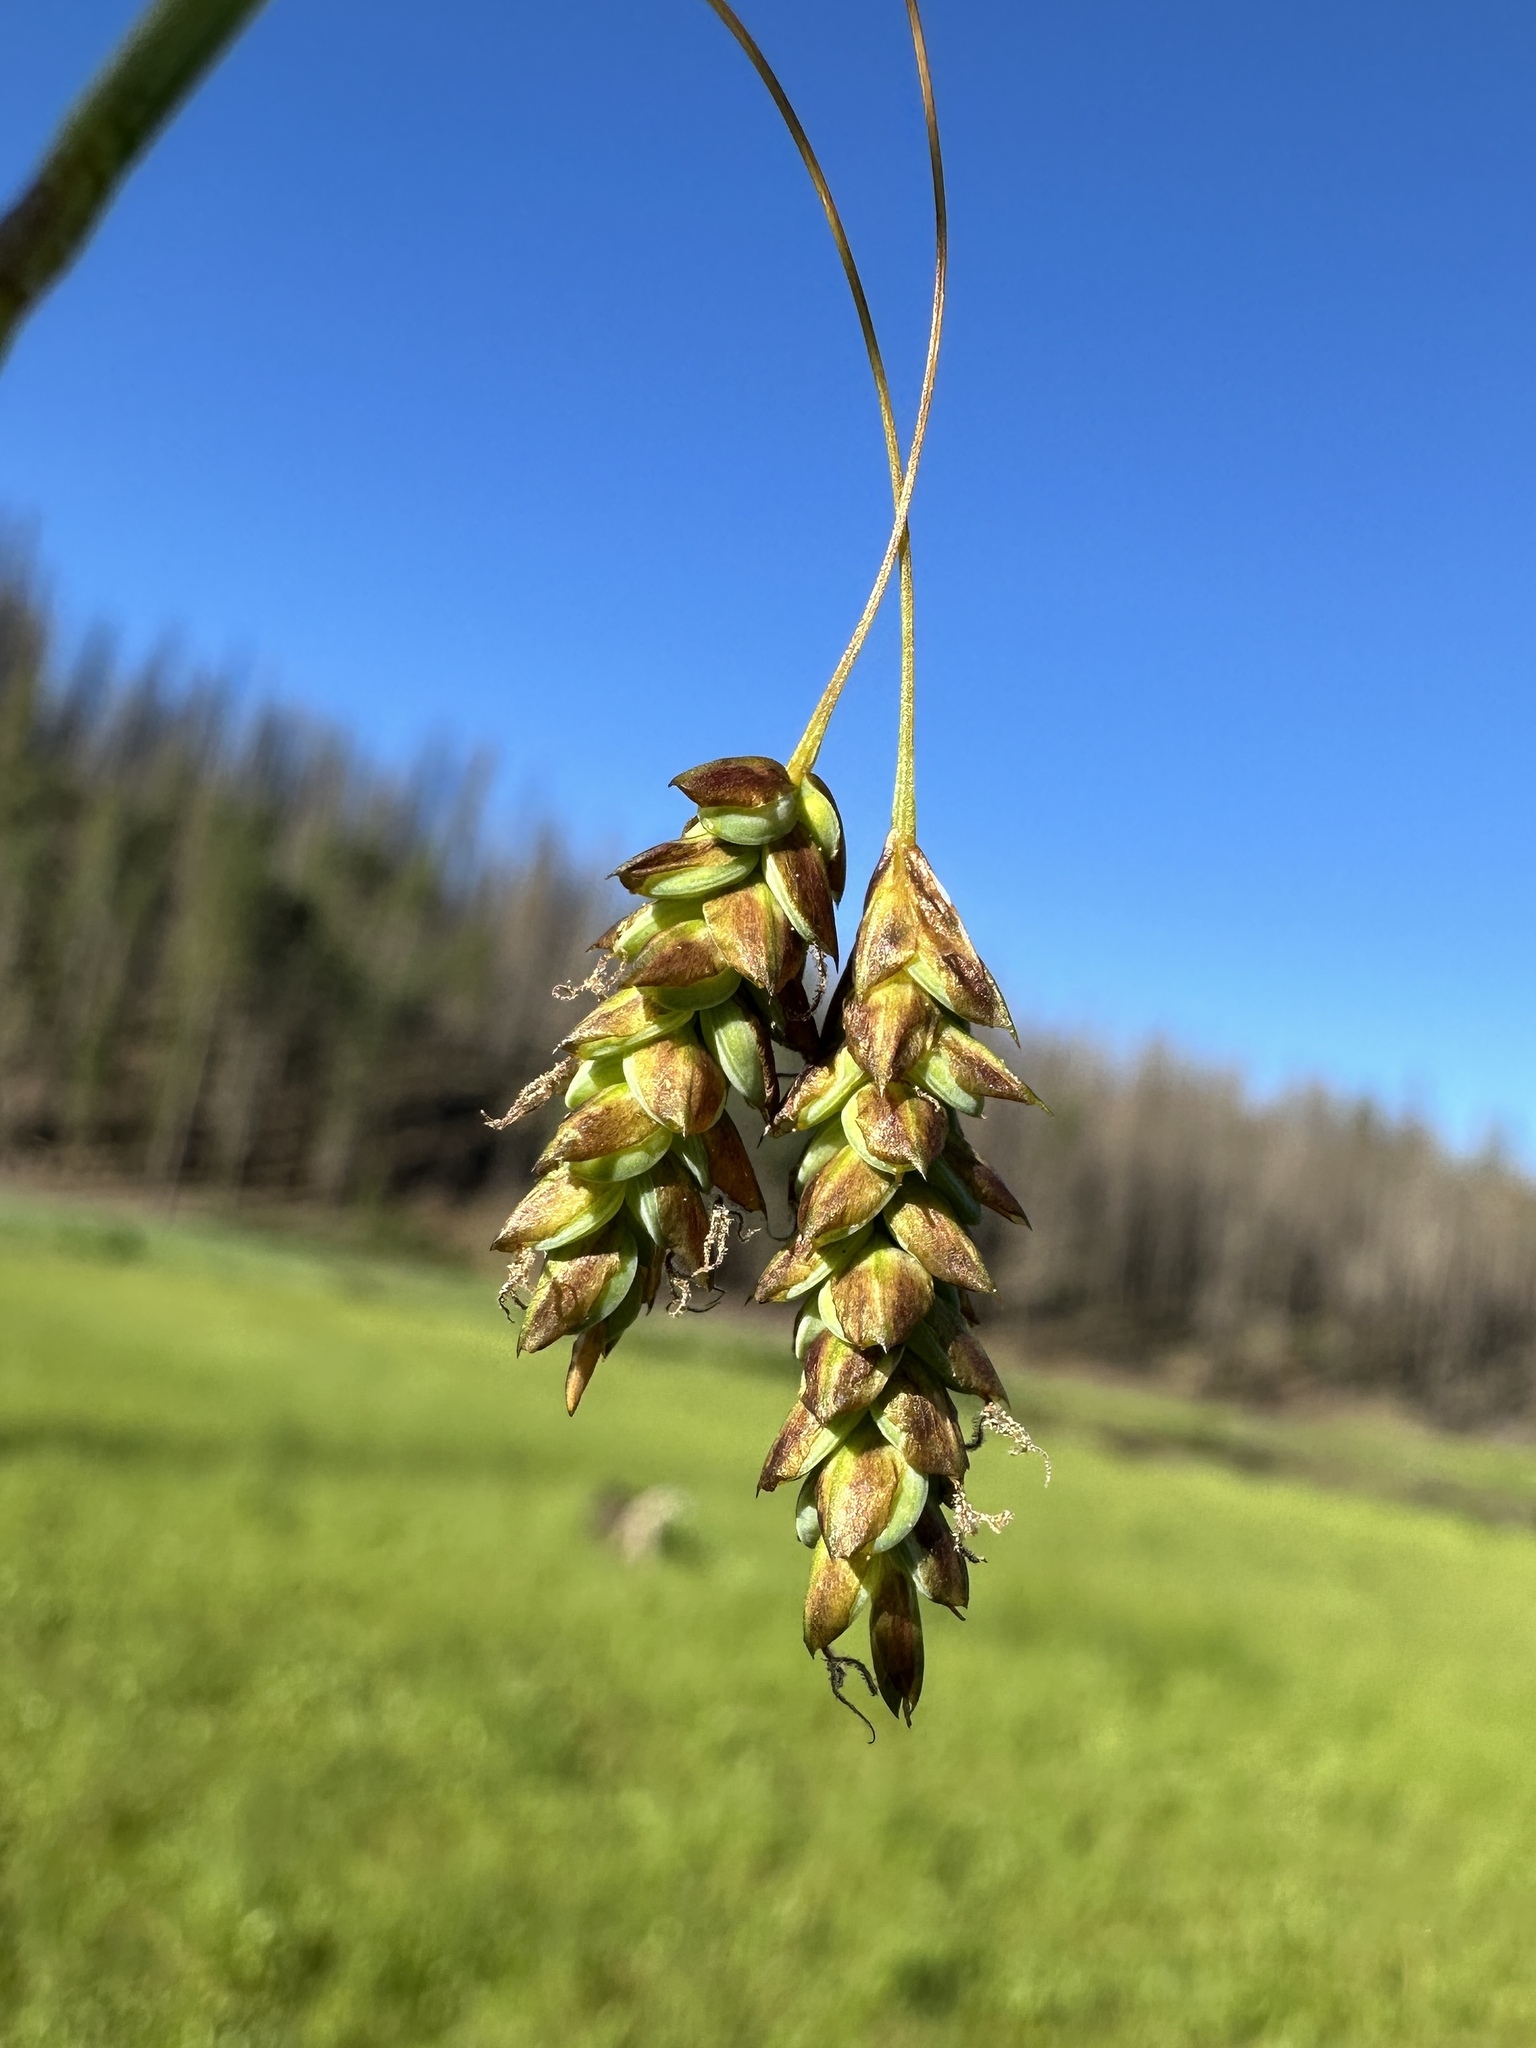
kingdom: Plantae
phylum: Tracheophyta
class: Liliopsida
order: Poales
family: Cyperaceae
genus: Carex
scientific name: Carex limosa
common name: Bog sedge
